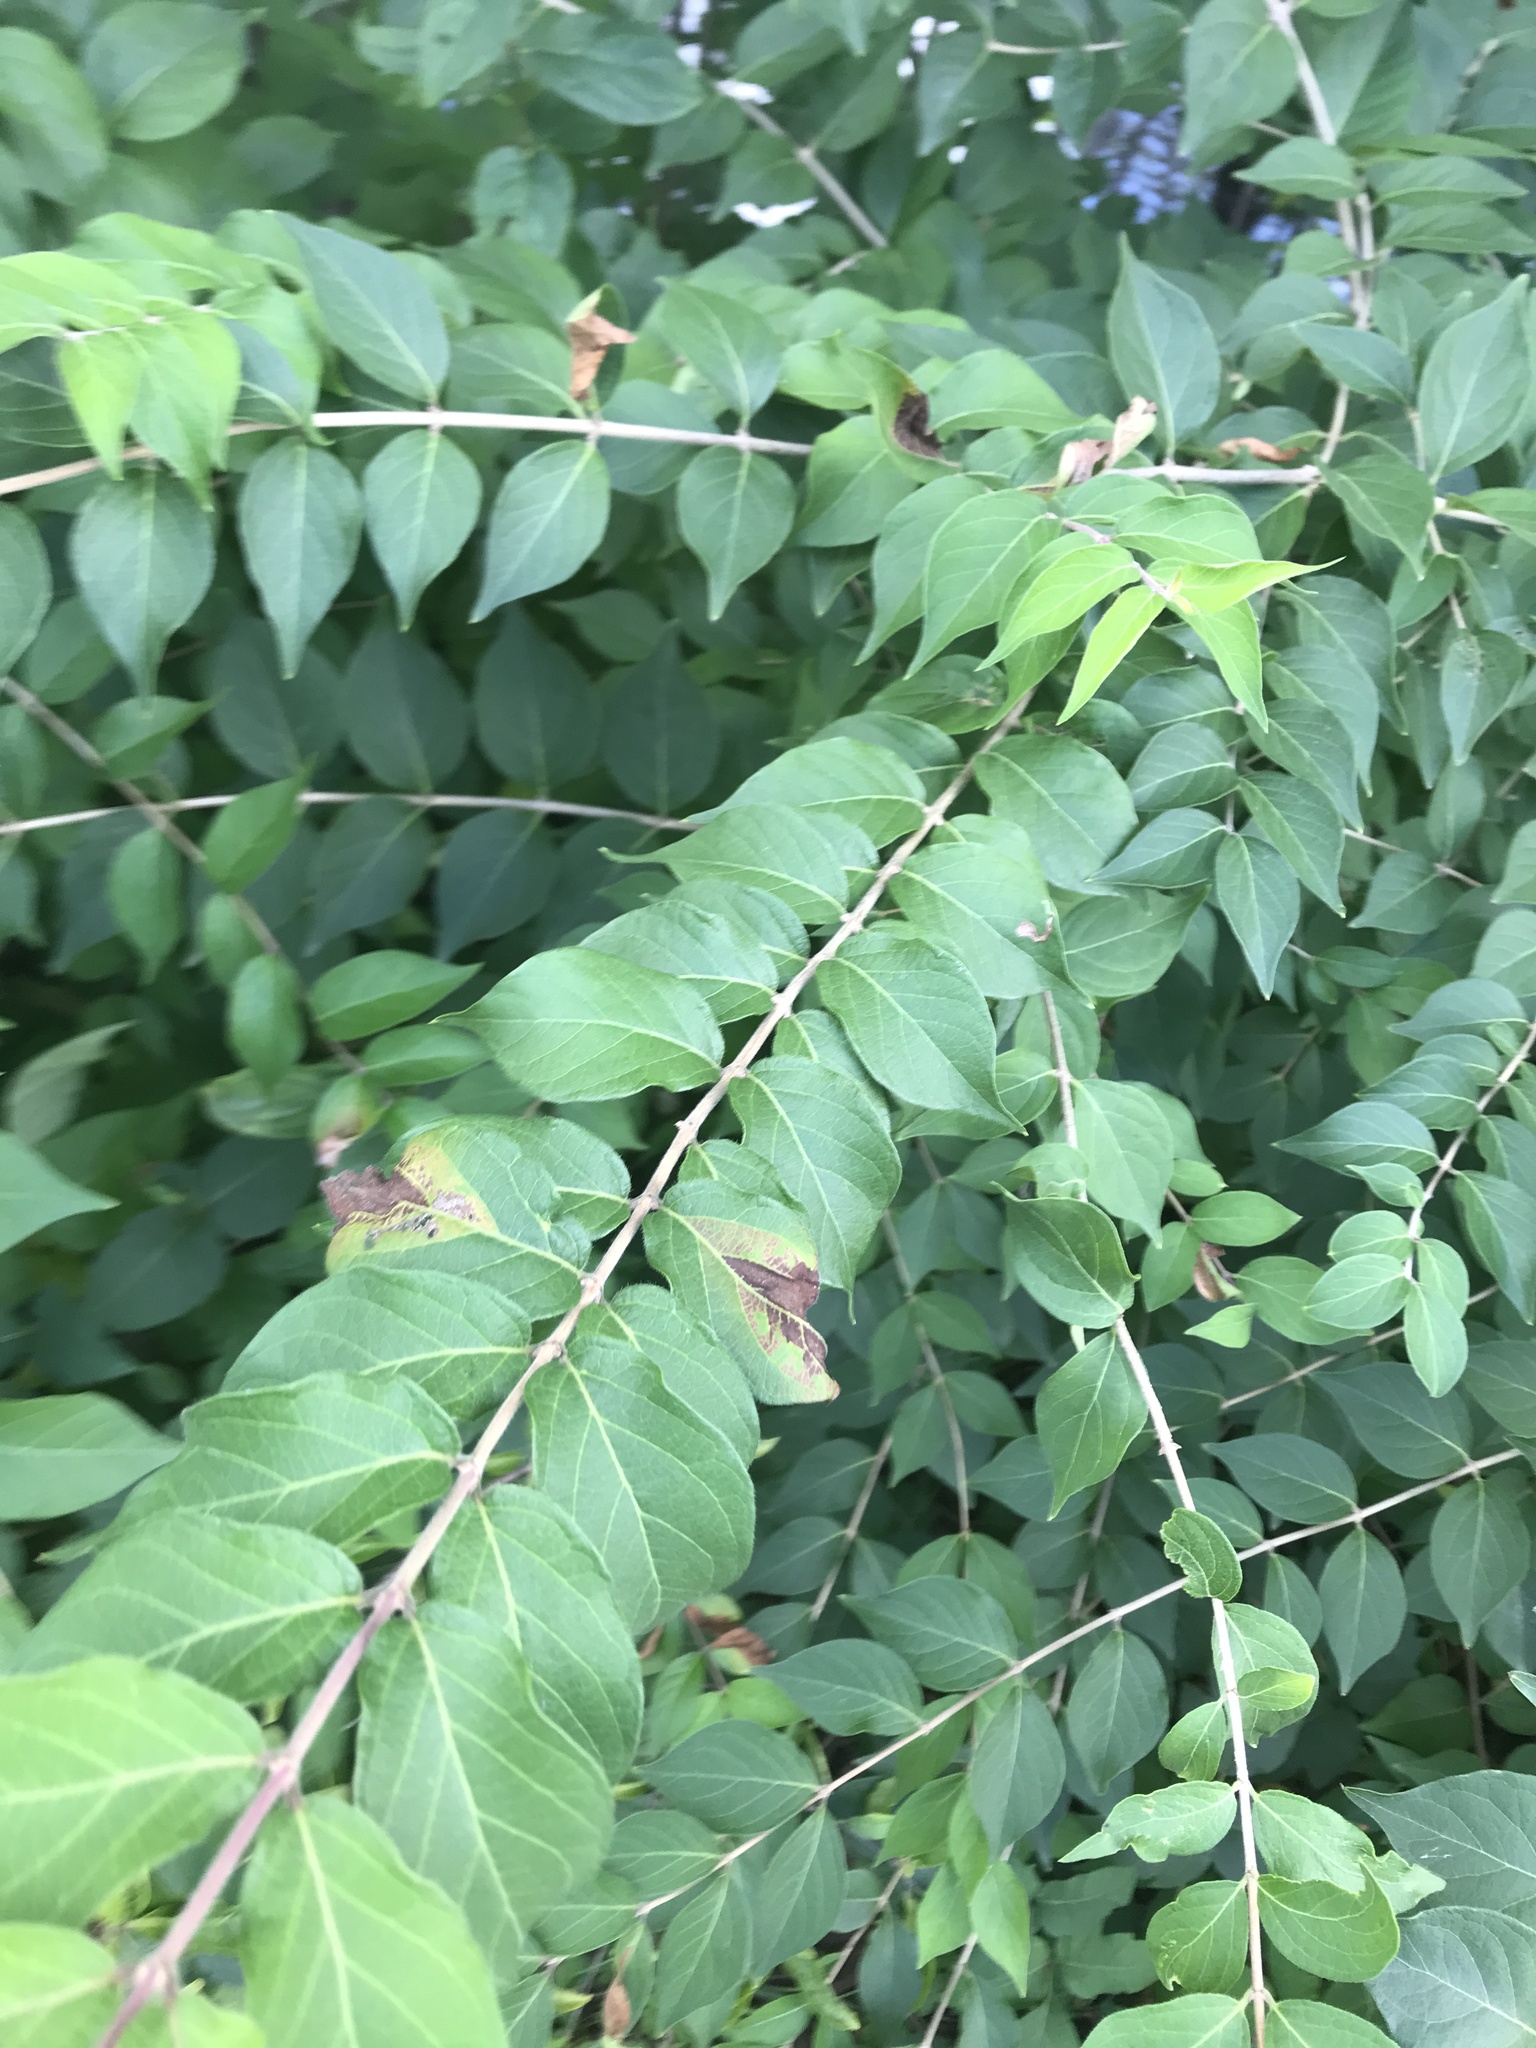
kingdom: Plantae
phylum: Tracheophyta
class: Magnoliopsida
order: Dipsacales
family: Caprifoliaceae
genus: Lonicera
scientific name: Lonicera maackii
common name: Amur honeysuckle
